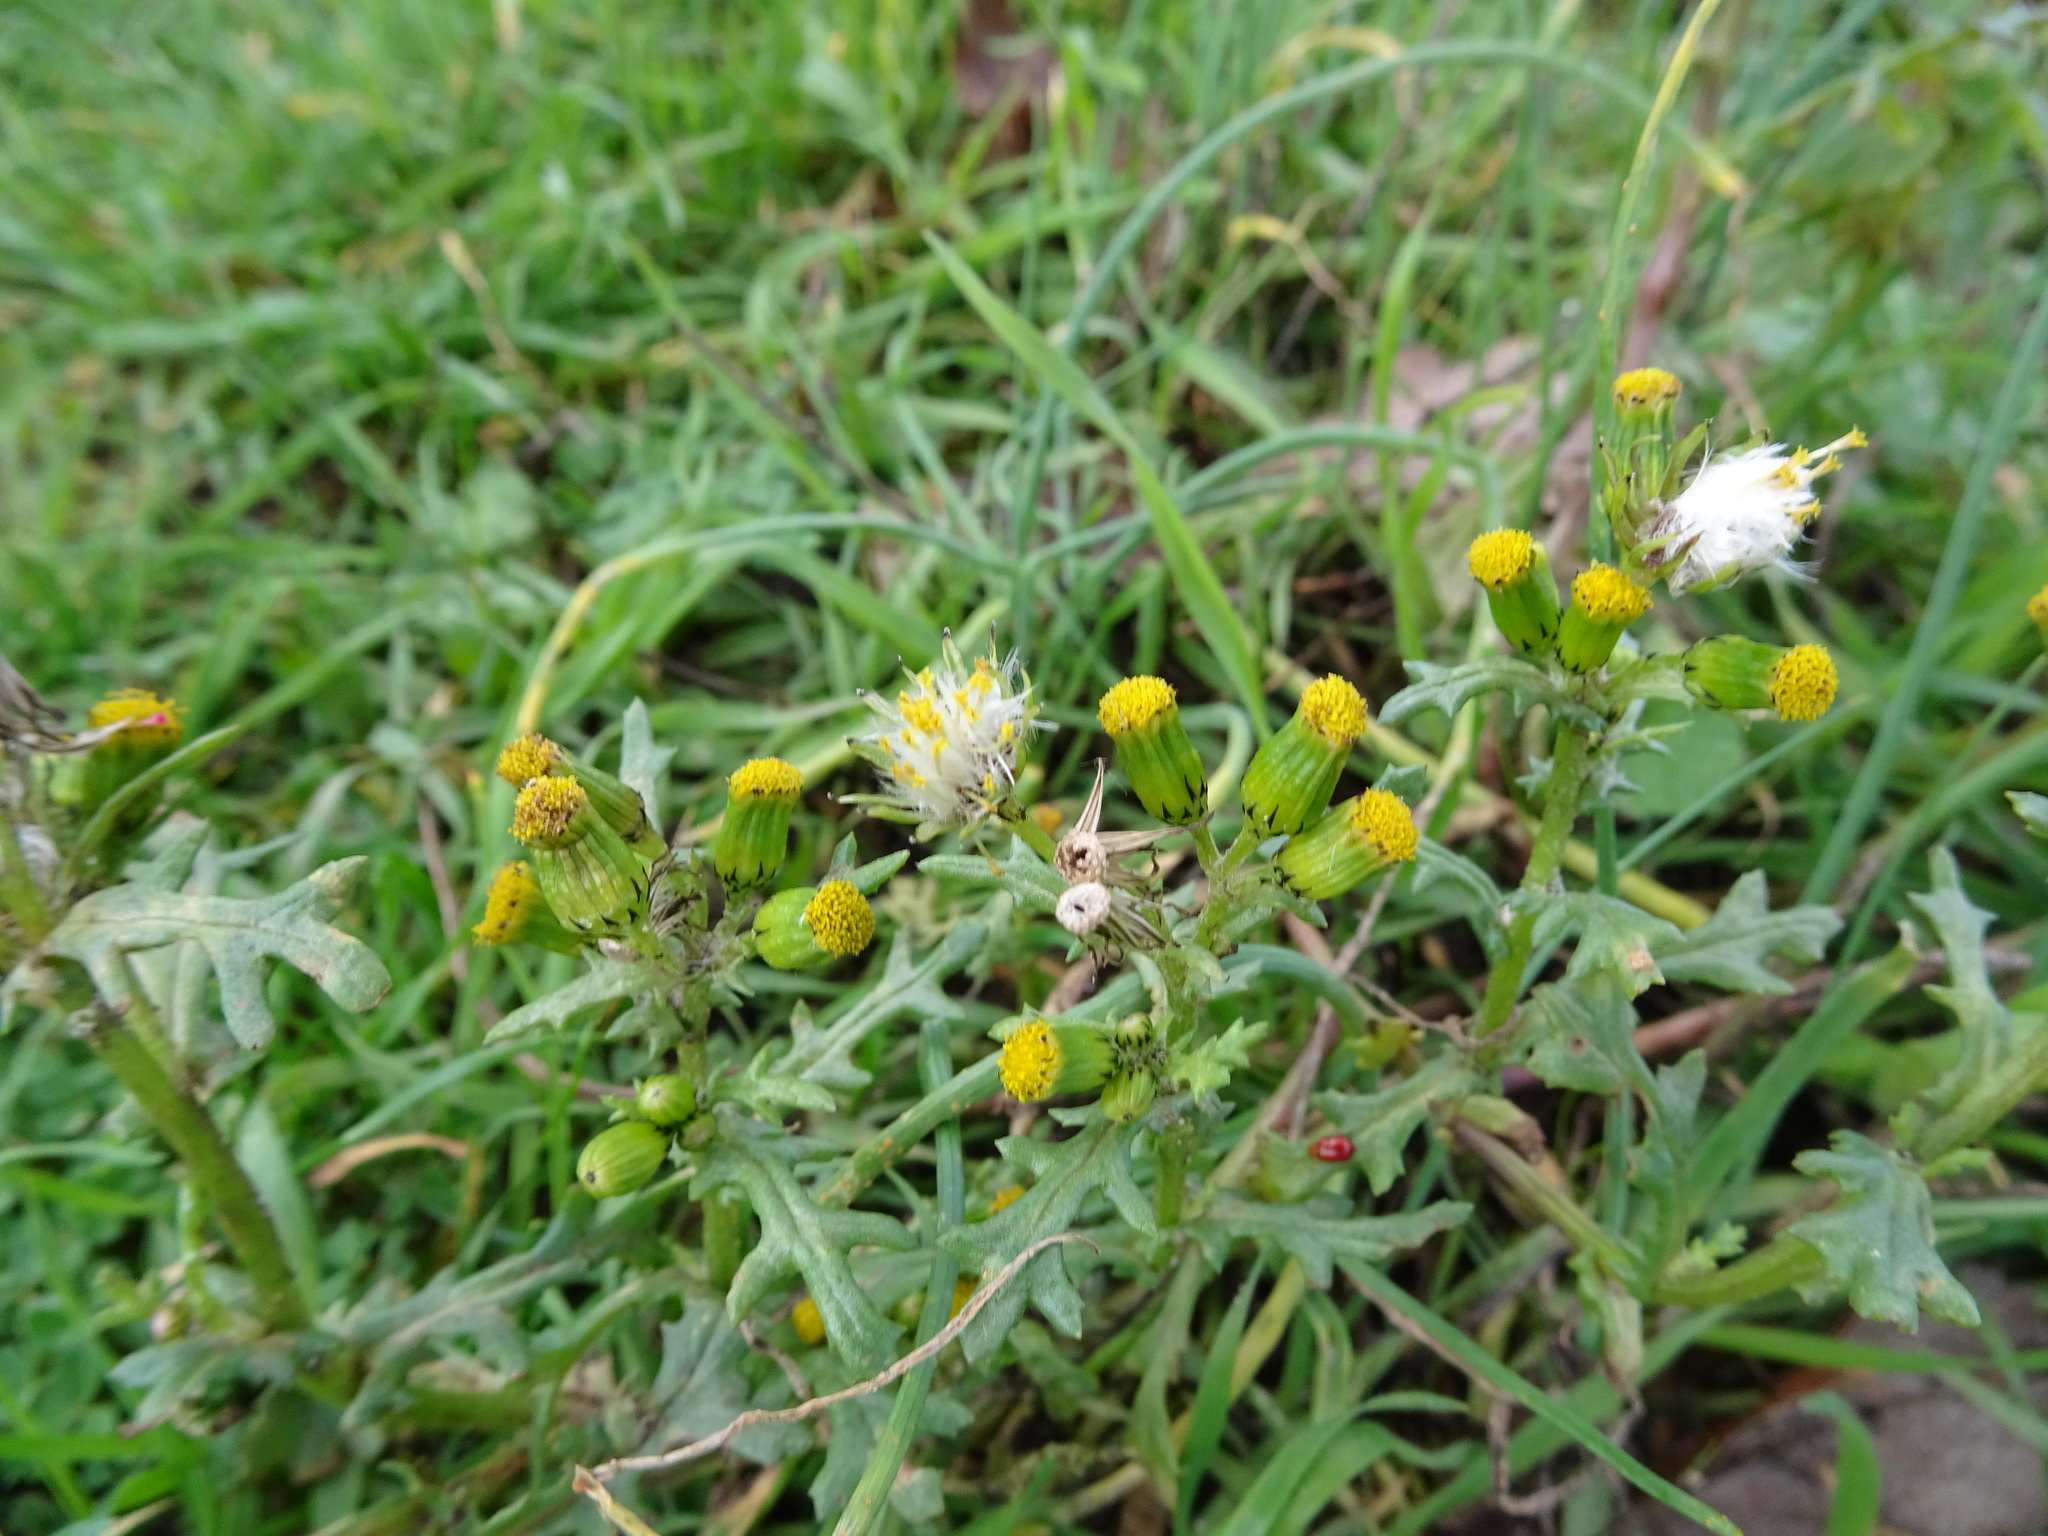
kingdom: Plantae
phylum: Tracheophyta
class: Magnoliopsida
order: Asterales
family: Asteraceae
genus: Senecio
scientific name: Senecio vulgaris
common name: Old-man-in-the-spring
